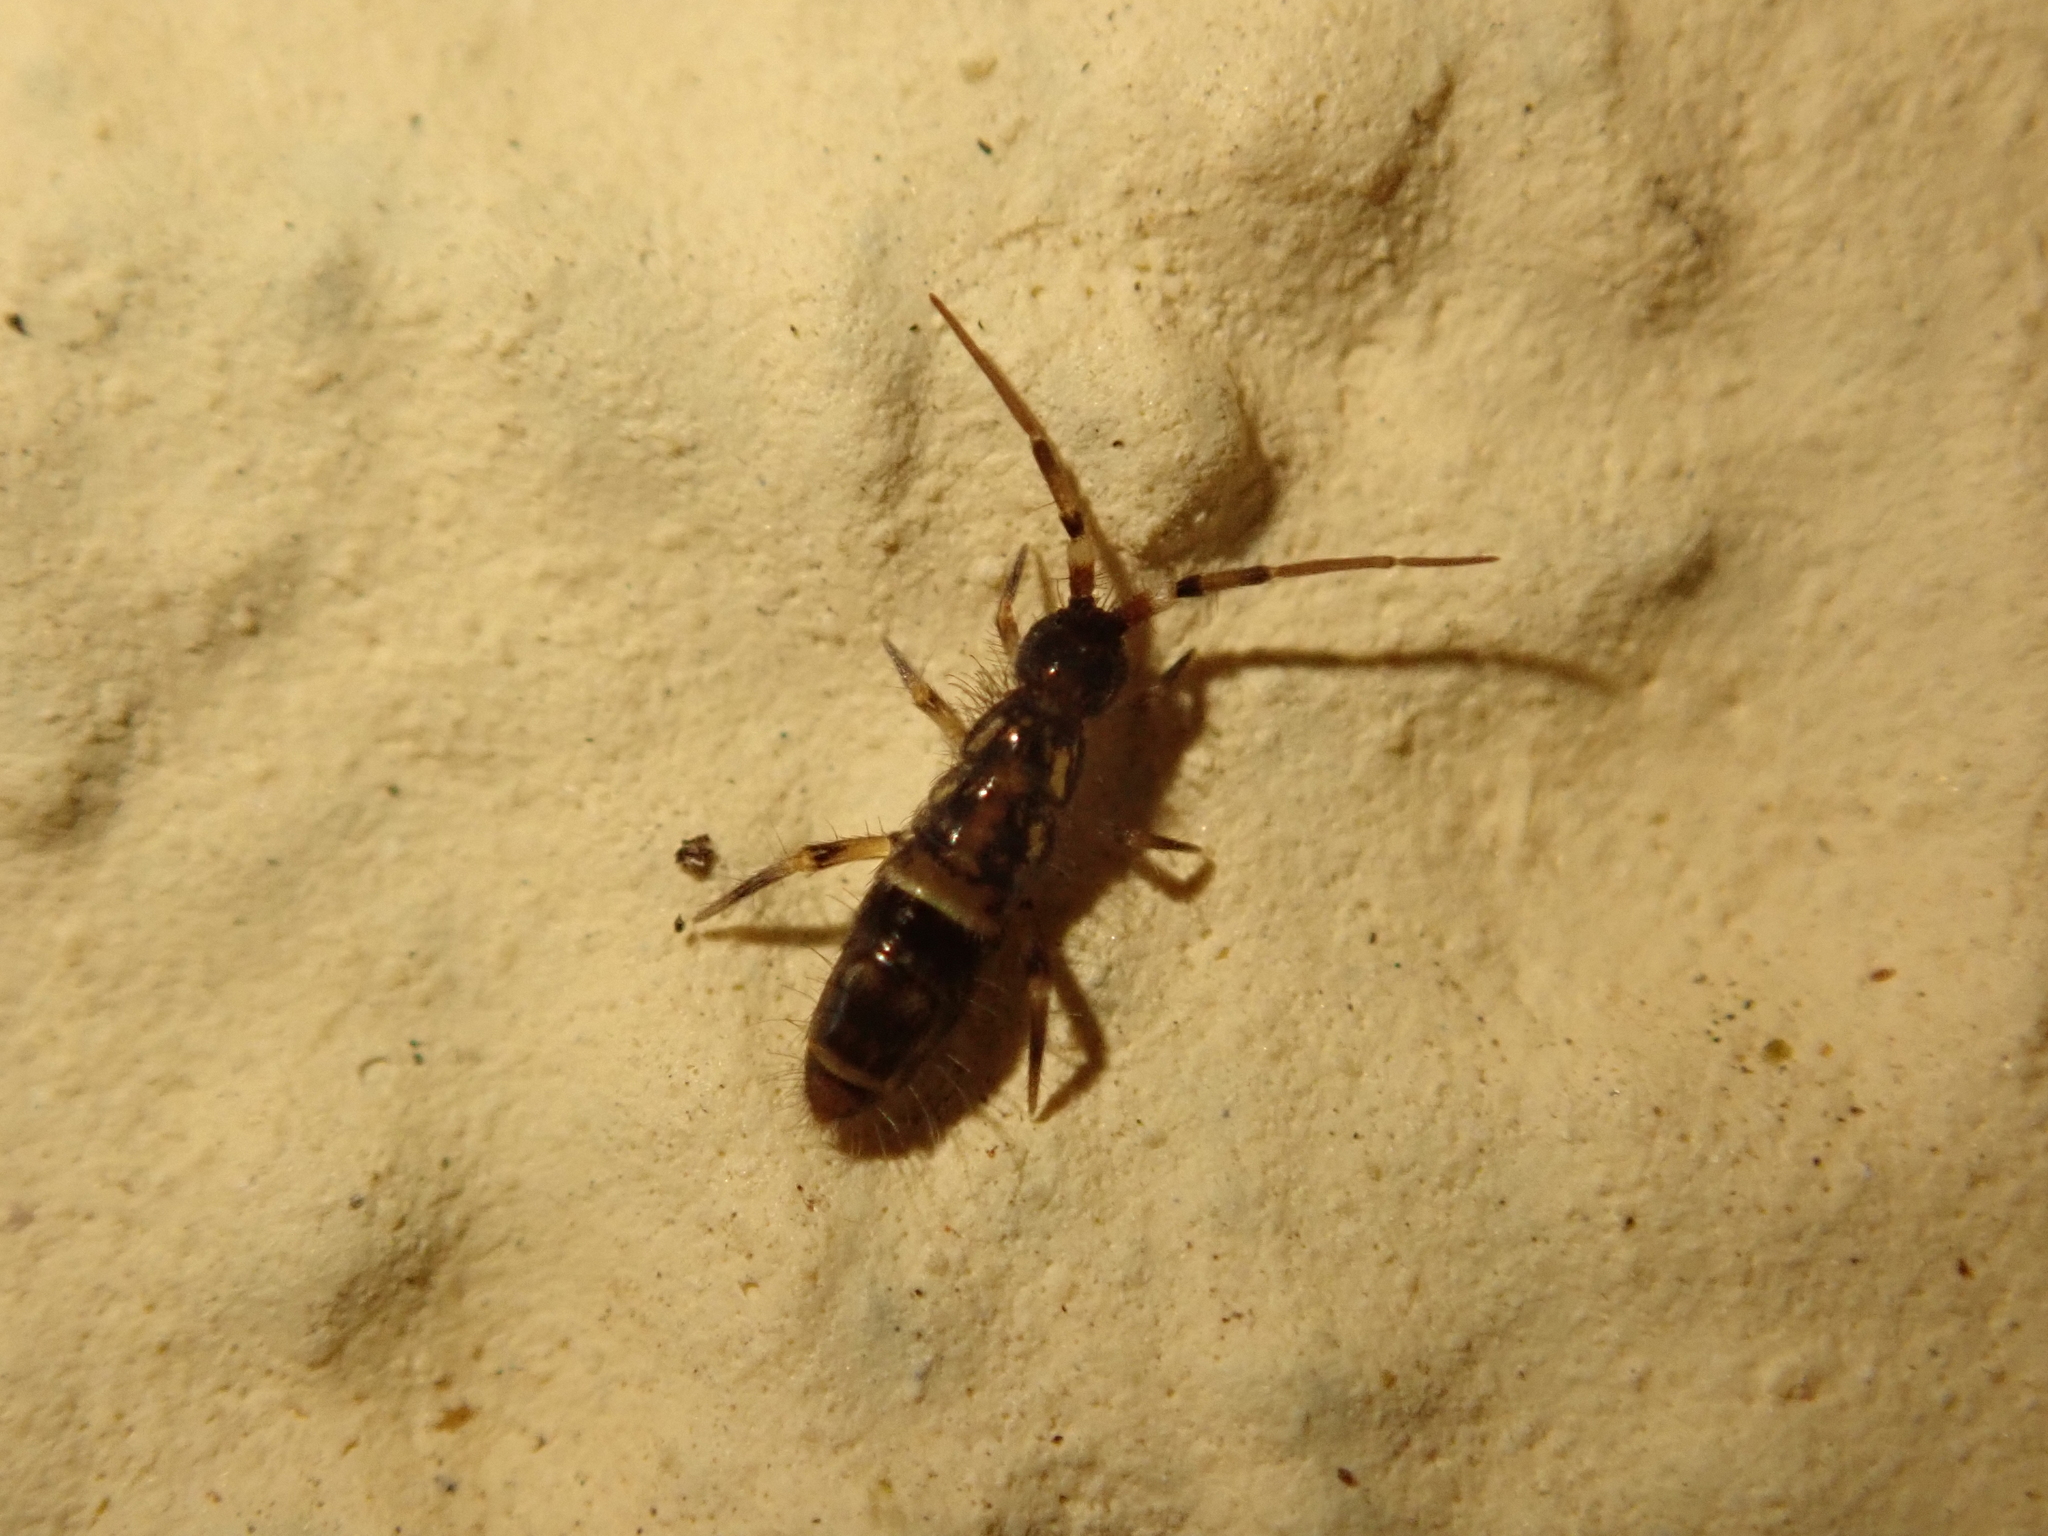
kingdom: Animalia
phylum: Arthropoda
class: Collembola
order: Entomobryomorpha
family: Orchesellidae
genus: Orchesella
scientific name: Orchesella cincta
